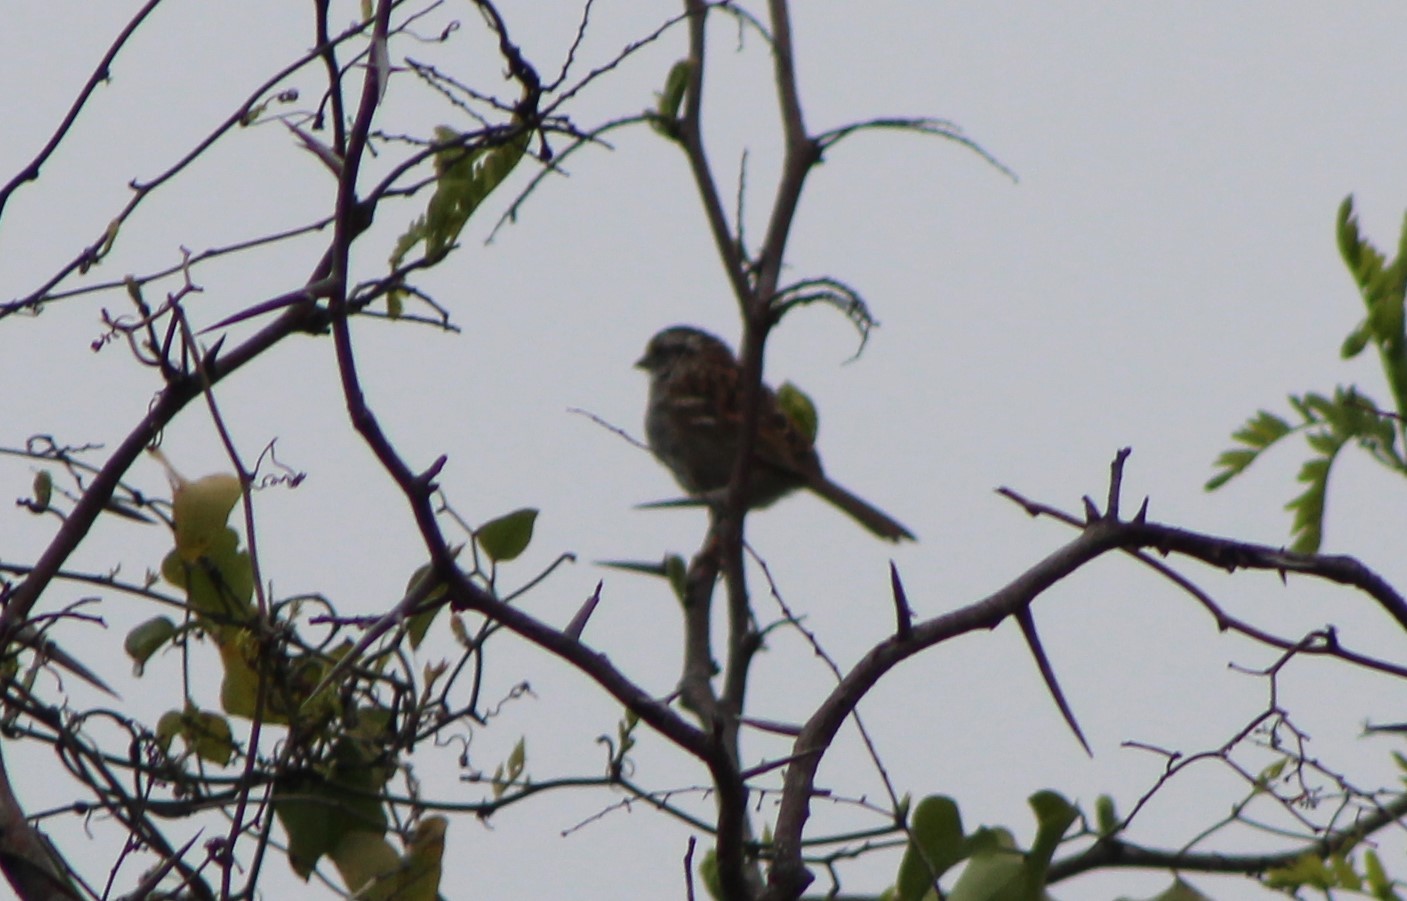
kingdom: Animalia
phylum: Chordata
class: Aves
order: Passeriformes
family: Passerellidae
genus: Zonotrichia
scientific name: Zonotrichia albicollis
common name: White-throated sparrow
